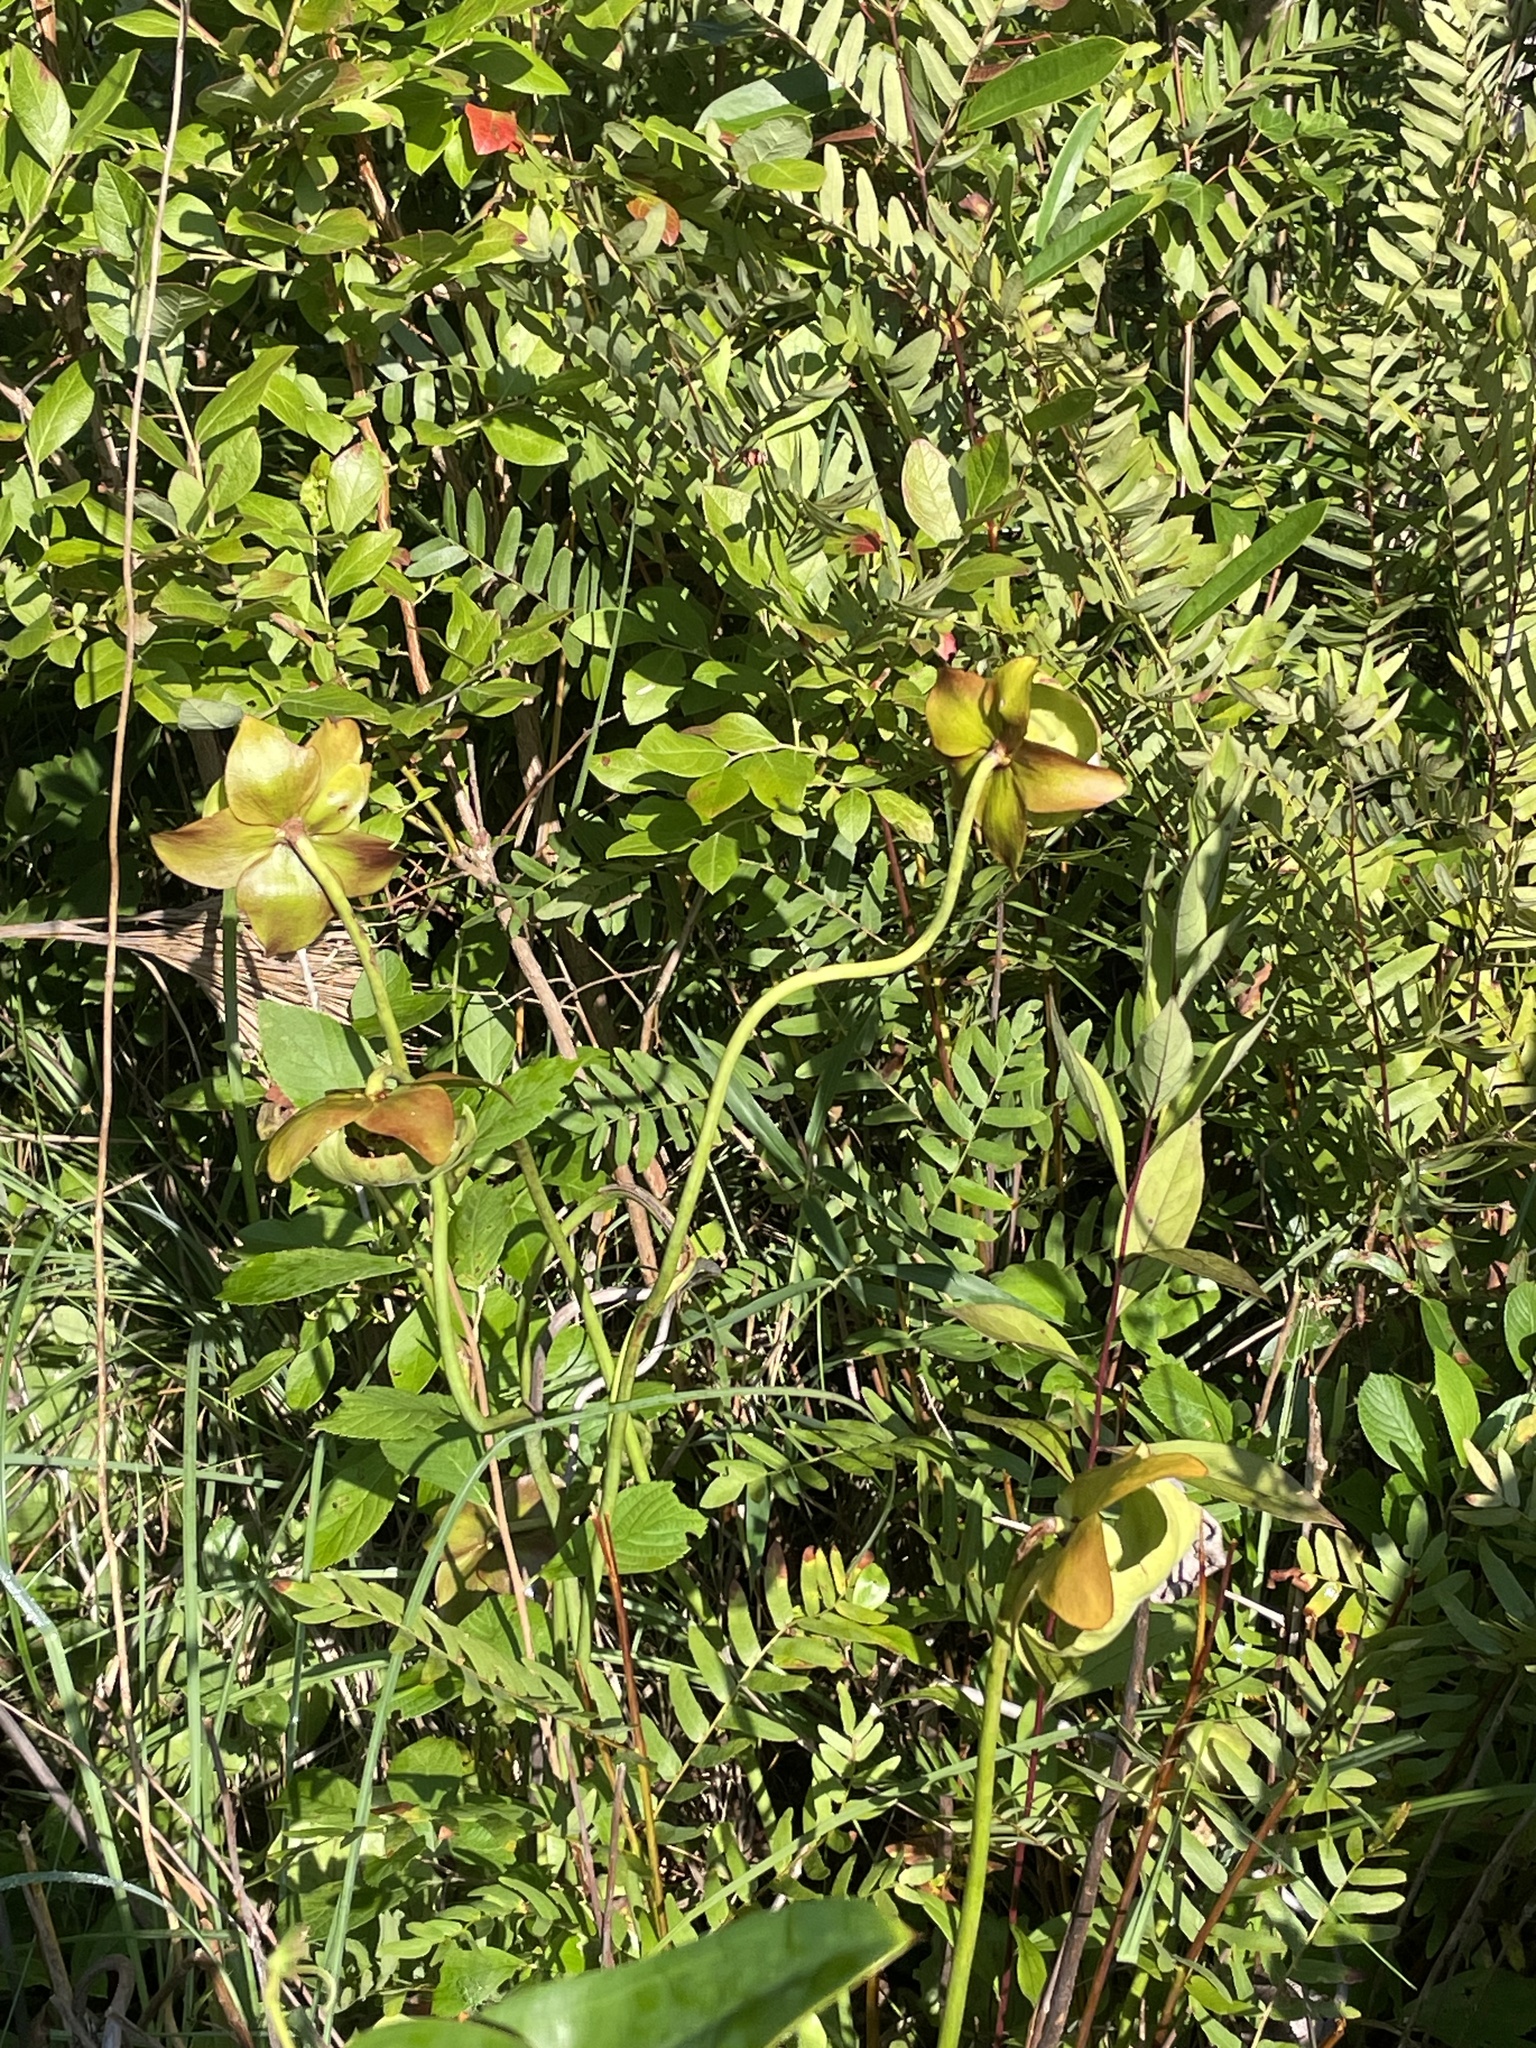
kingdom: Plantae
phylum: Tracheophyta
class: Magnoliopsida
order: Ericales
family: Sarraceniaceae
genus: Sarracenia
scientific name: Sarracenia purpurea
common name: Pitcherplant
